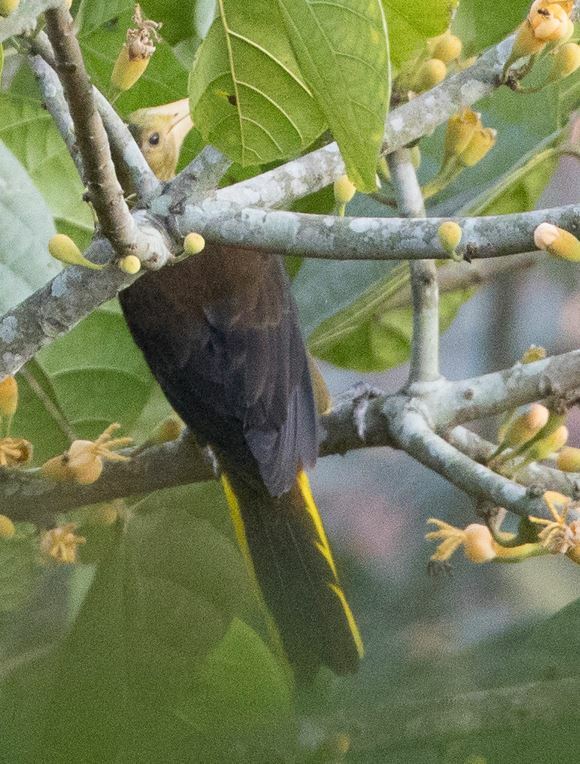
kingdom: Animalia
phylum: Chordata
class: Aves
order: Passeriformes
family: Icteridae
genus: Psarocolius
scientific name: Psarocolius angustifrons
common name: Russet-backed oropendola
